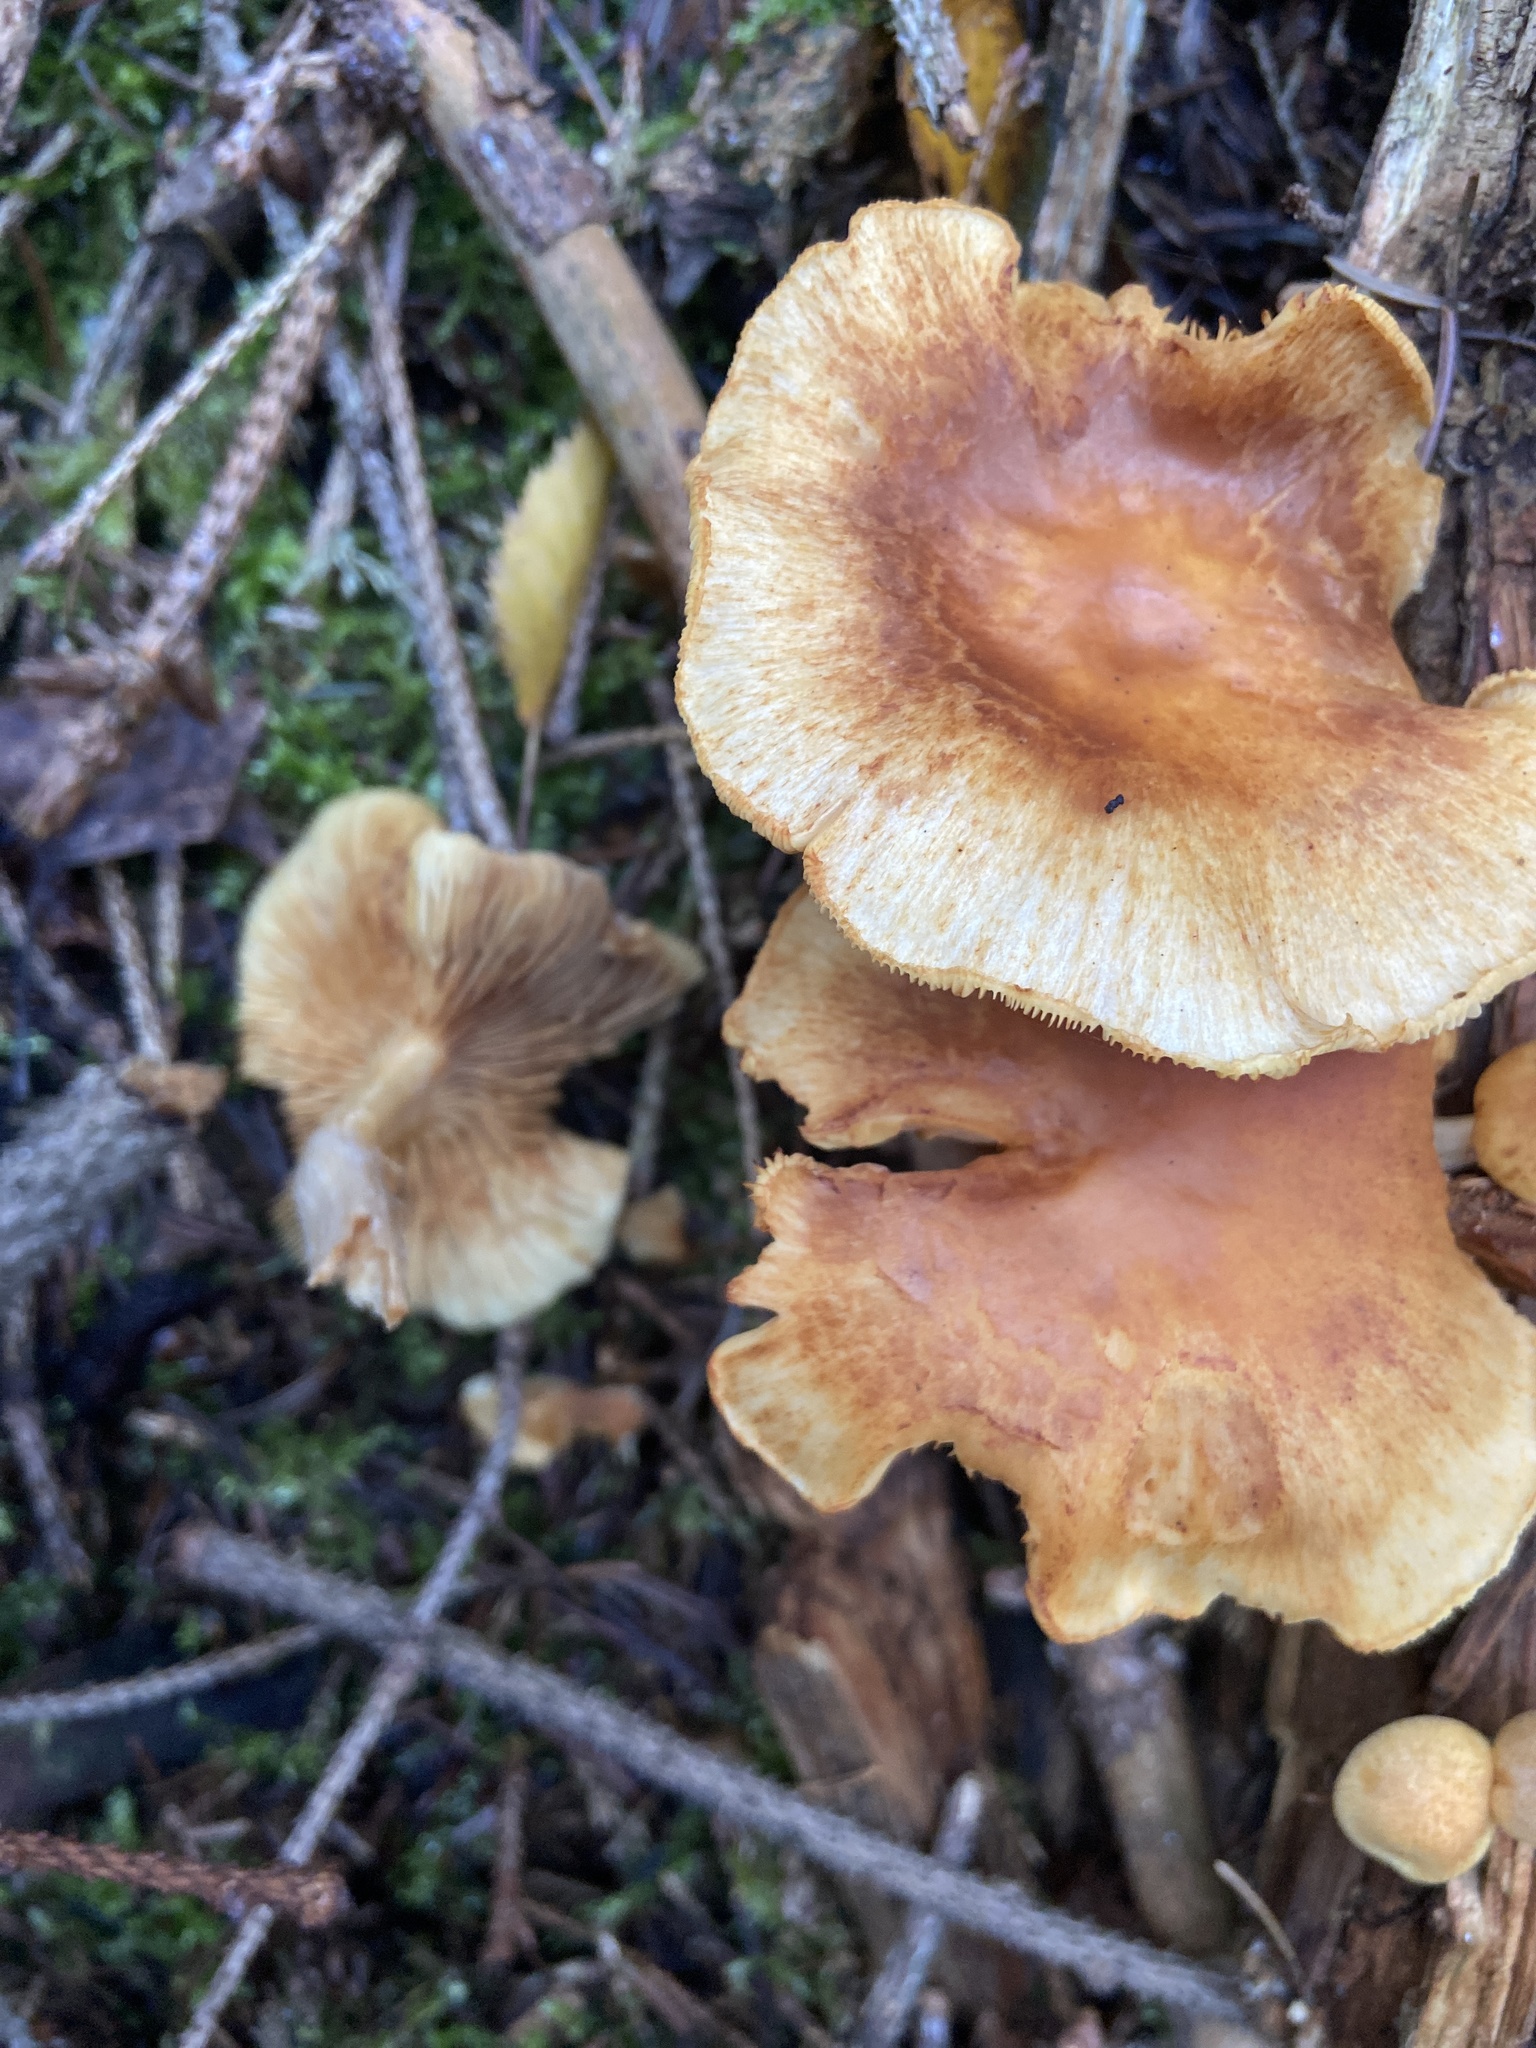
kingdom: Fungi
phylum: Basidiomycota
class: Agaricomycetes
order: Agaricales
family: Hymenogastraceae
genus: Gymnopilus
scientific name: Gymnopilus penetrans
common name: Common rustgill
